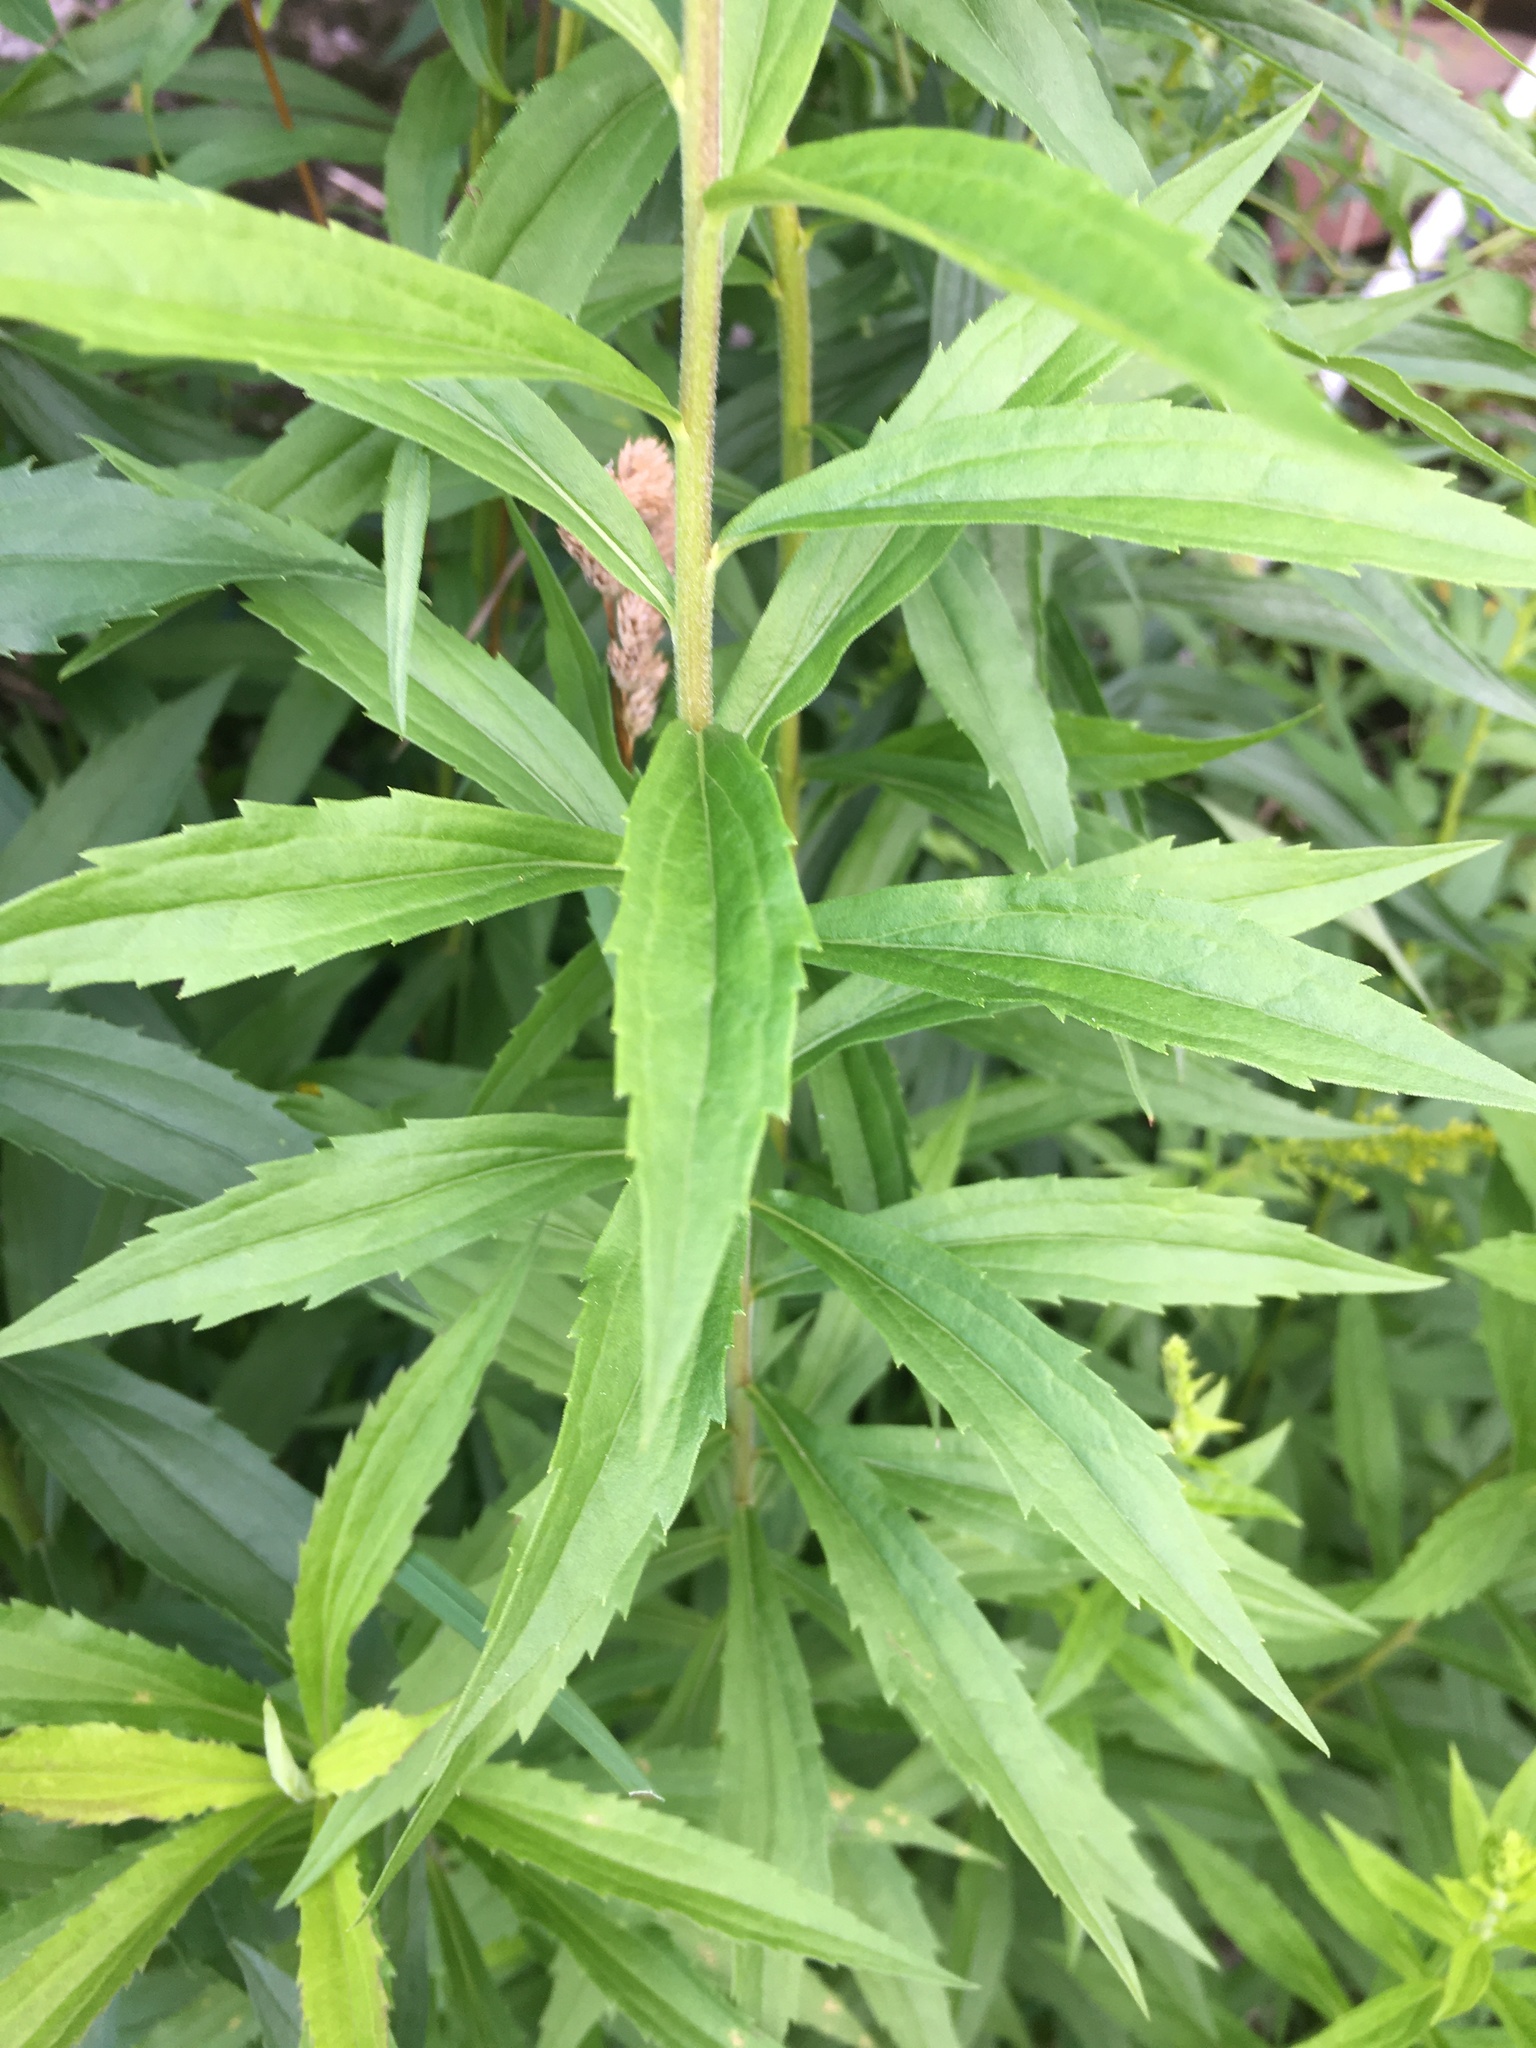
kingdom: Plantae
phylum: Tracheophyta
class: Magnoliopsida
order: Asterales
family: Asteraceae
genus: Solidago
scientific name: Solidago canadensis
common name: Canada goldenrod
